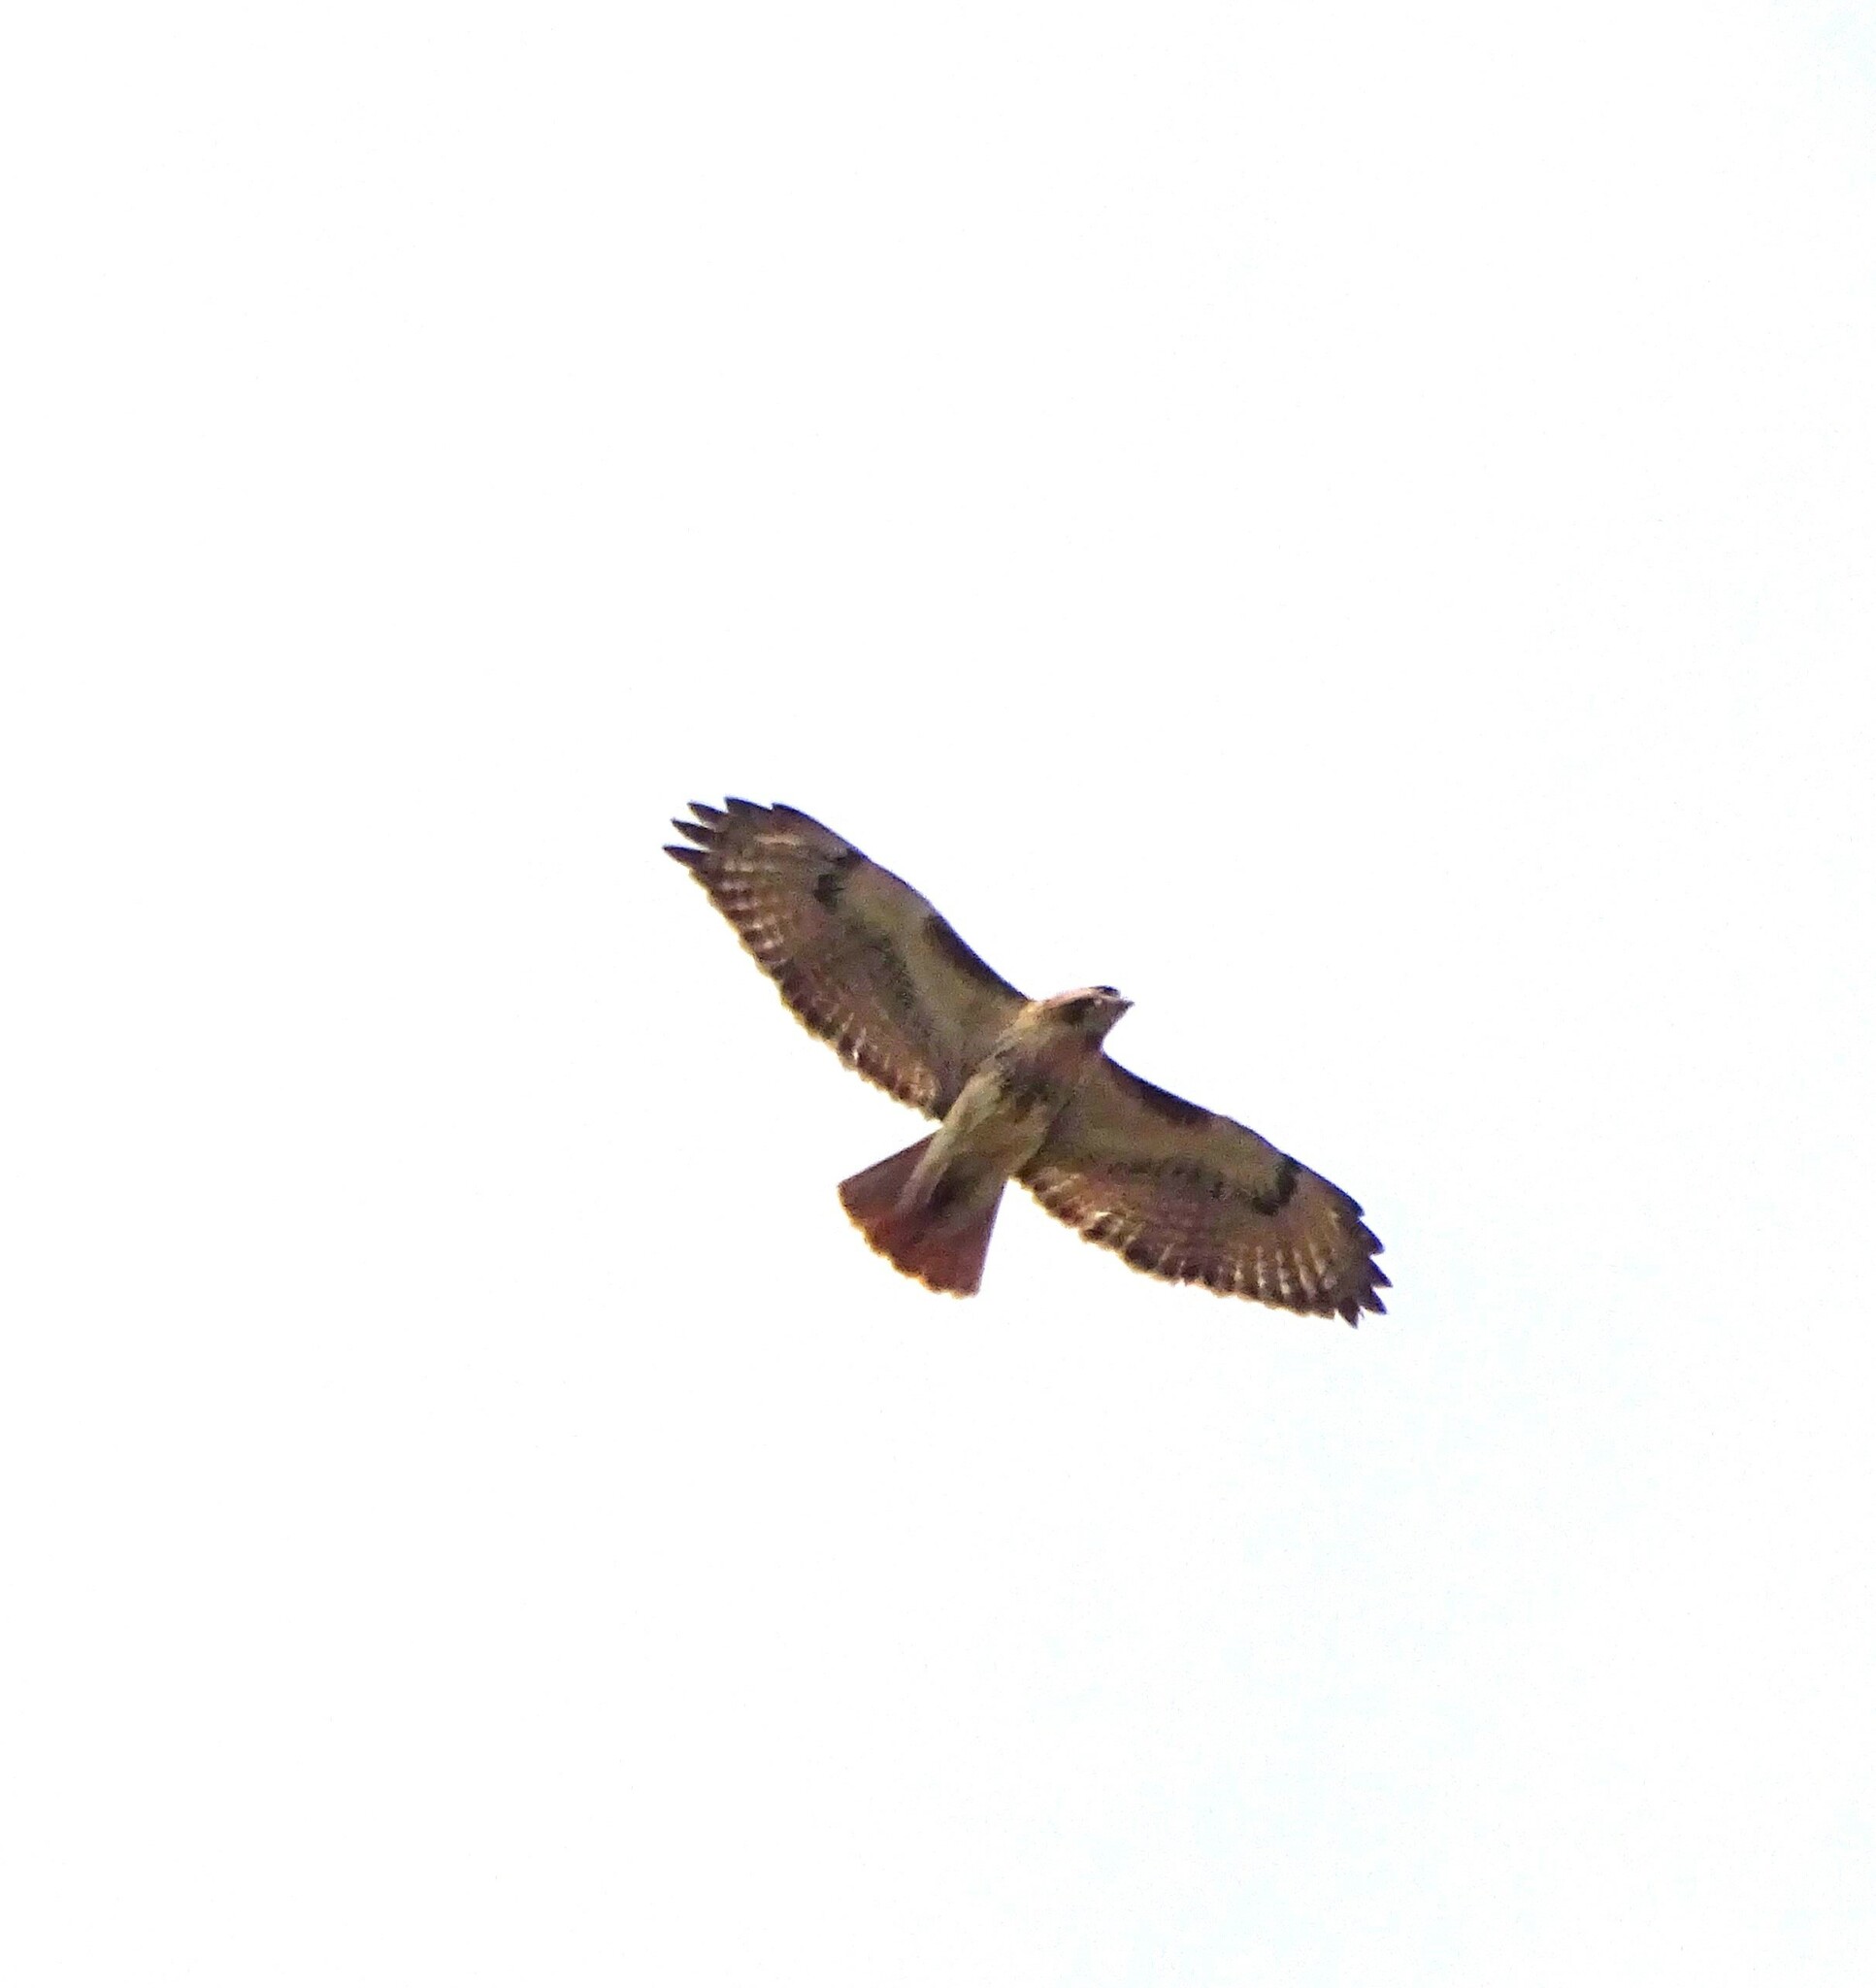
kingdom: Animalia
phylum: Chordata
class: Aves
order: Accipitriformes
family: Accipitridae
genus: Buteo
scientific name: Buteo jamaicensis
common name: Red-tailed hawk
